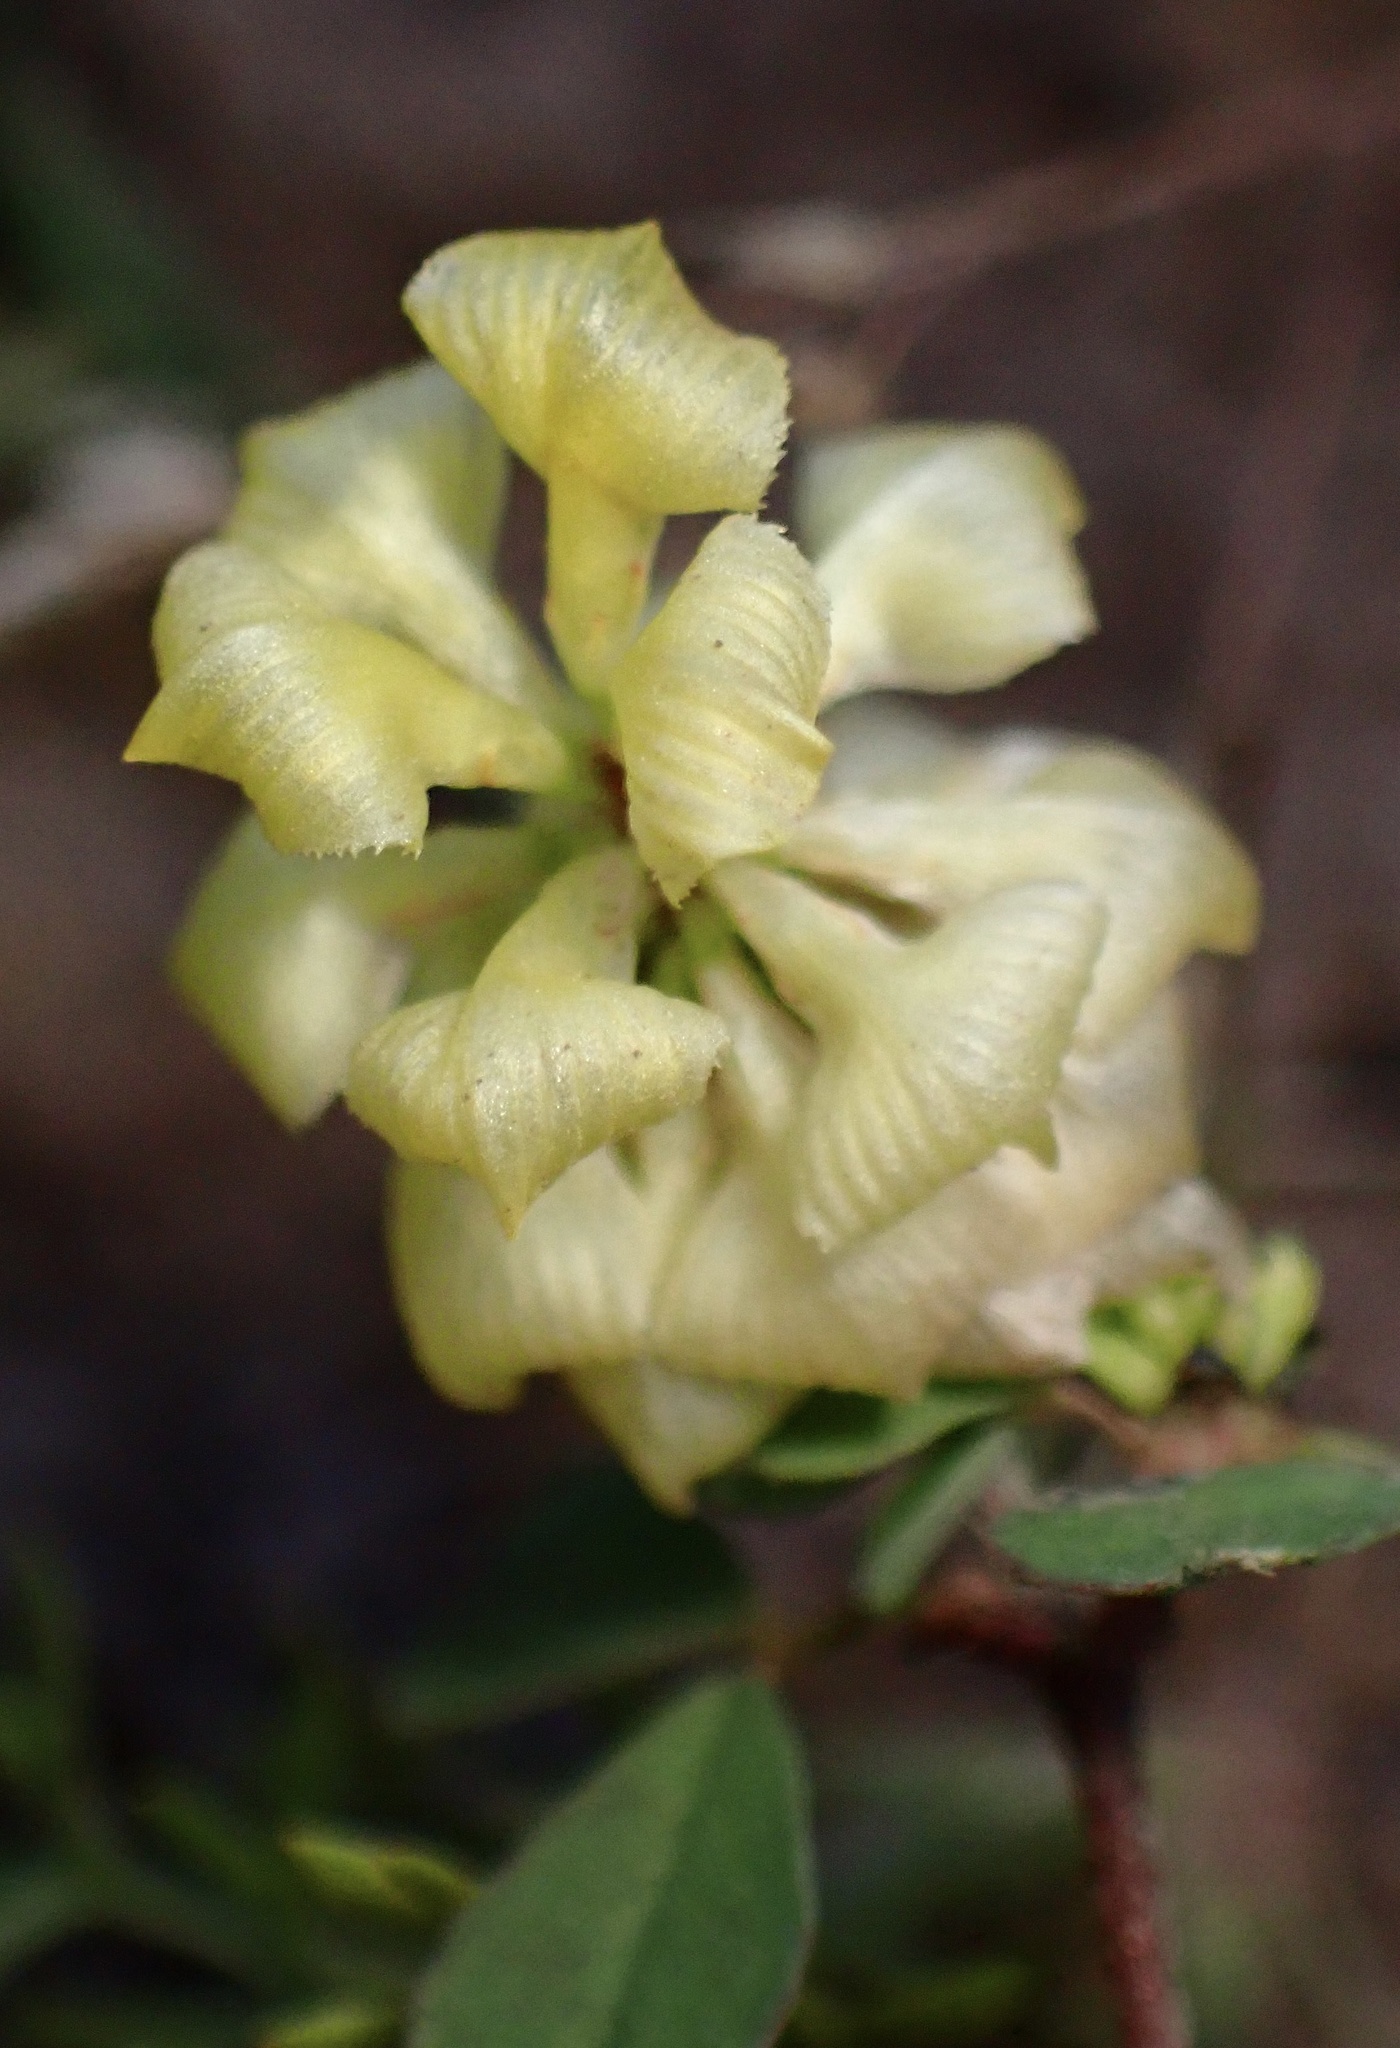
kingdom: Plantae
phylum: Tracheophyta
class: Magnoliopsida
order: Fabales
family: Fabaceae
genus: Trifolium
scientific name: Trifolium campestre
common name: Field clover
